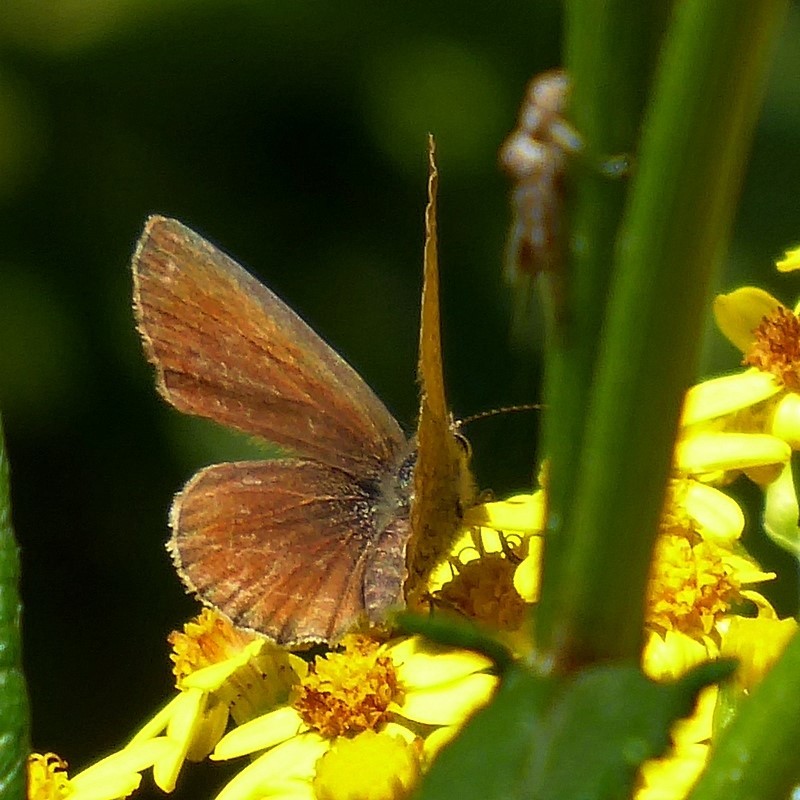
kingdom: Animalia
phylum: Arthropoda
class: Insecta
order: Lepidoptera
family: Lycaenidae
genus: Neolucia
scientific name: Neolucia mathewi
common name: Mathew's blue
